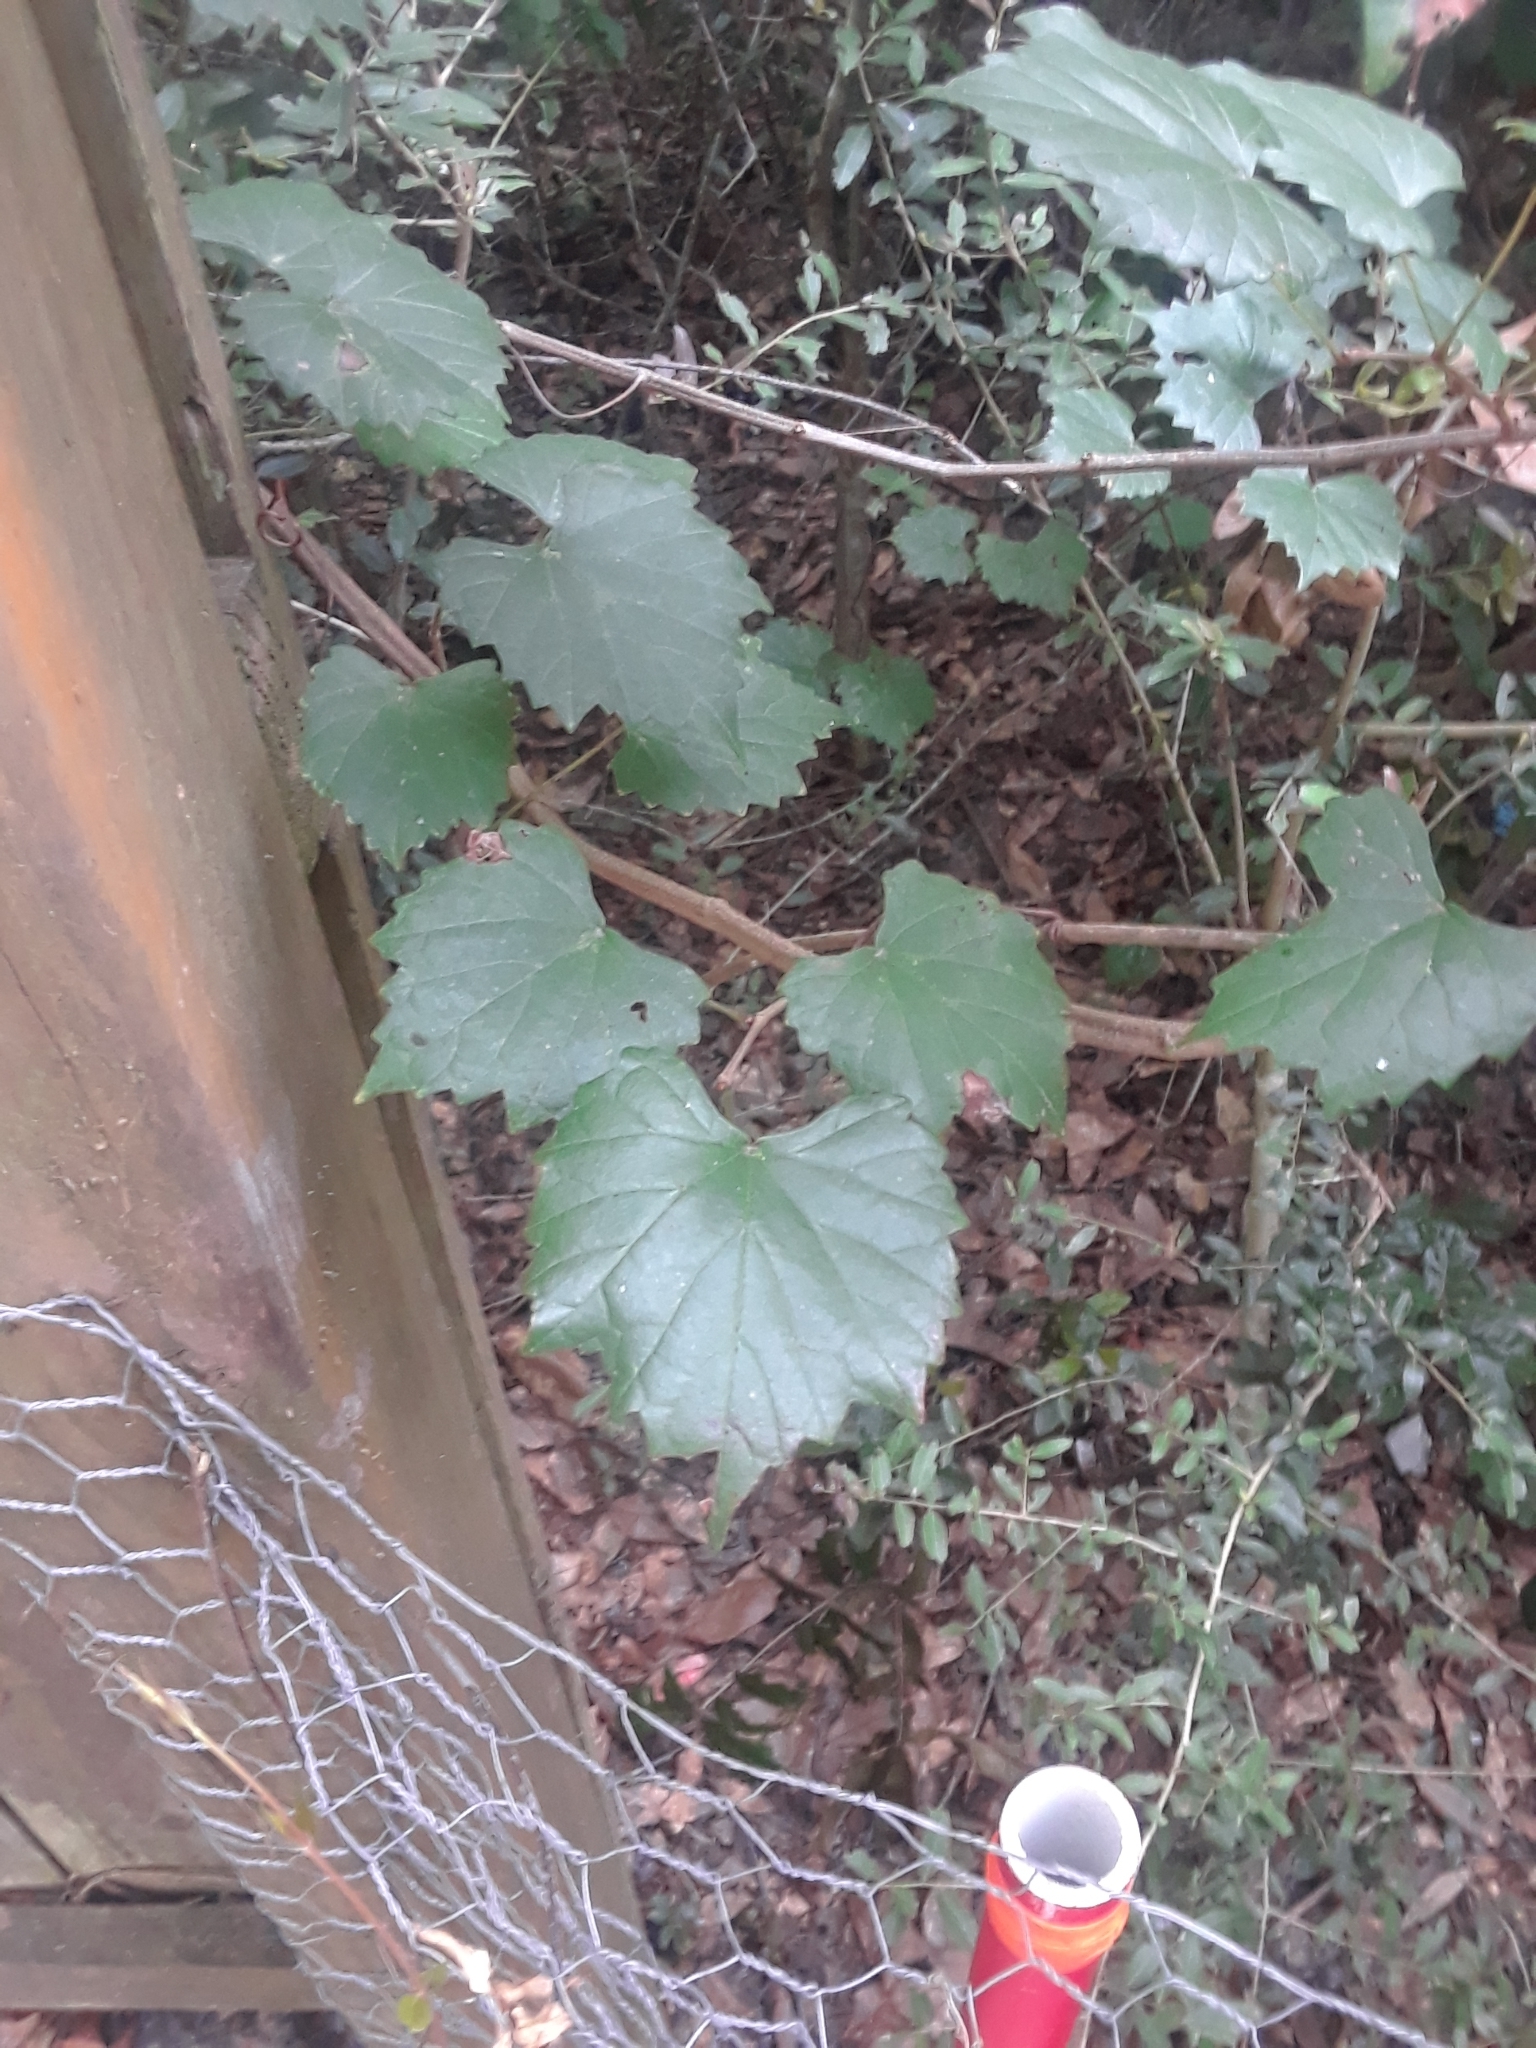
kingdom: Plantae
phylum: Tracheophyta
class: Magnoliopsida
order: Vitales
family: Vitaceae
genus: Vitis
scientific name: Vitis rotundifolia
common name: Muscadine grape
